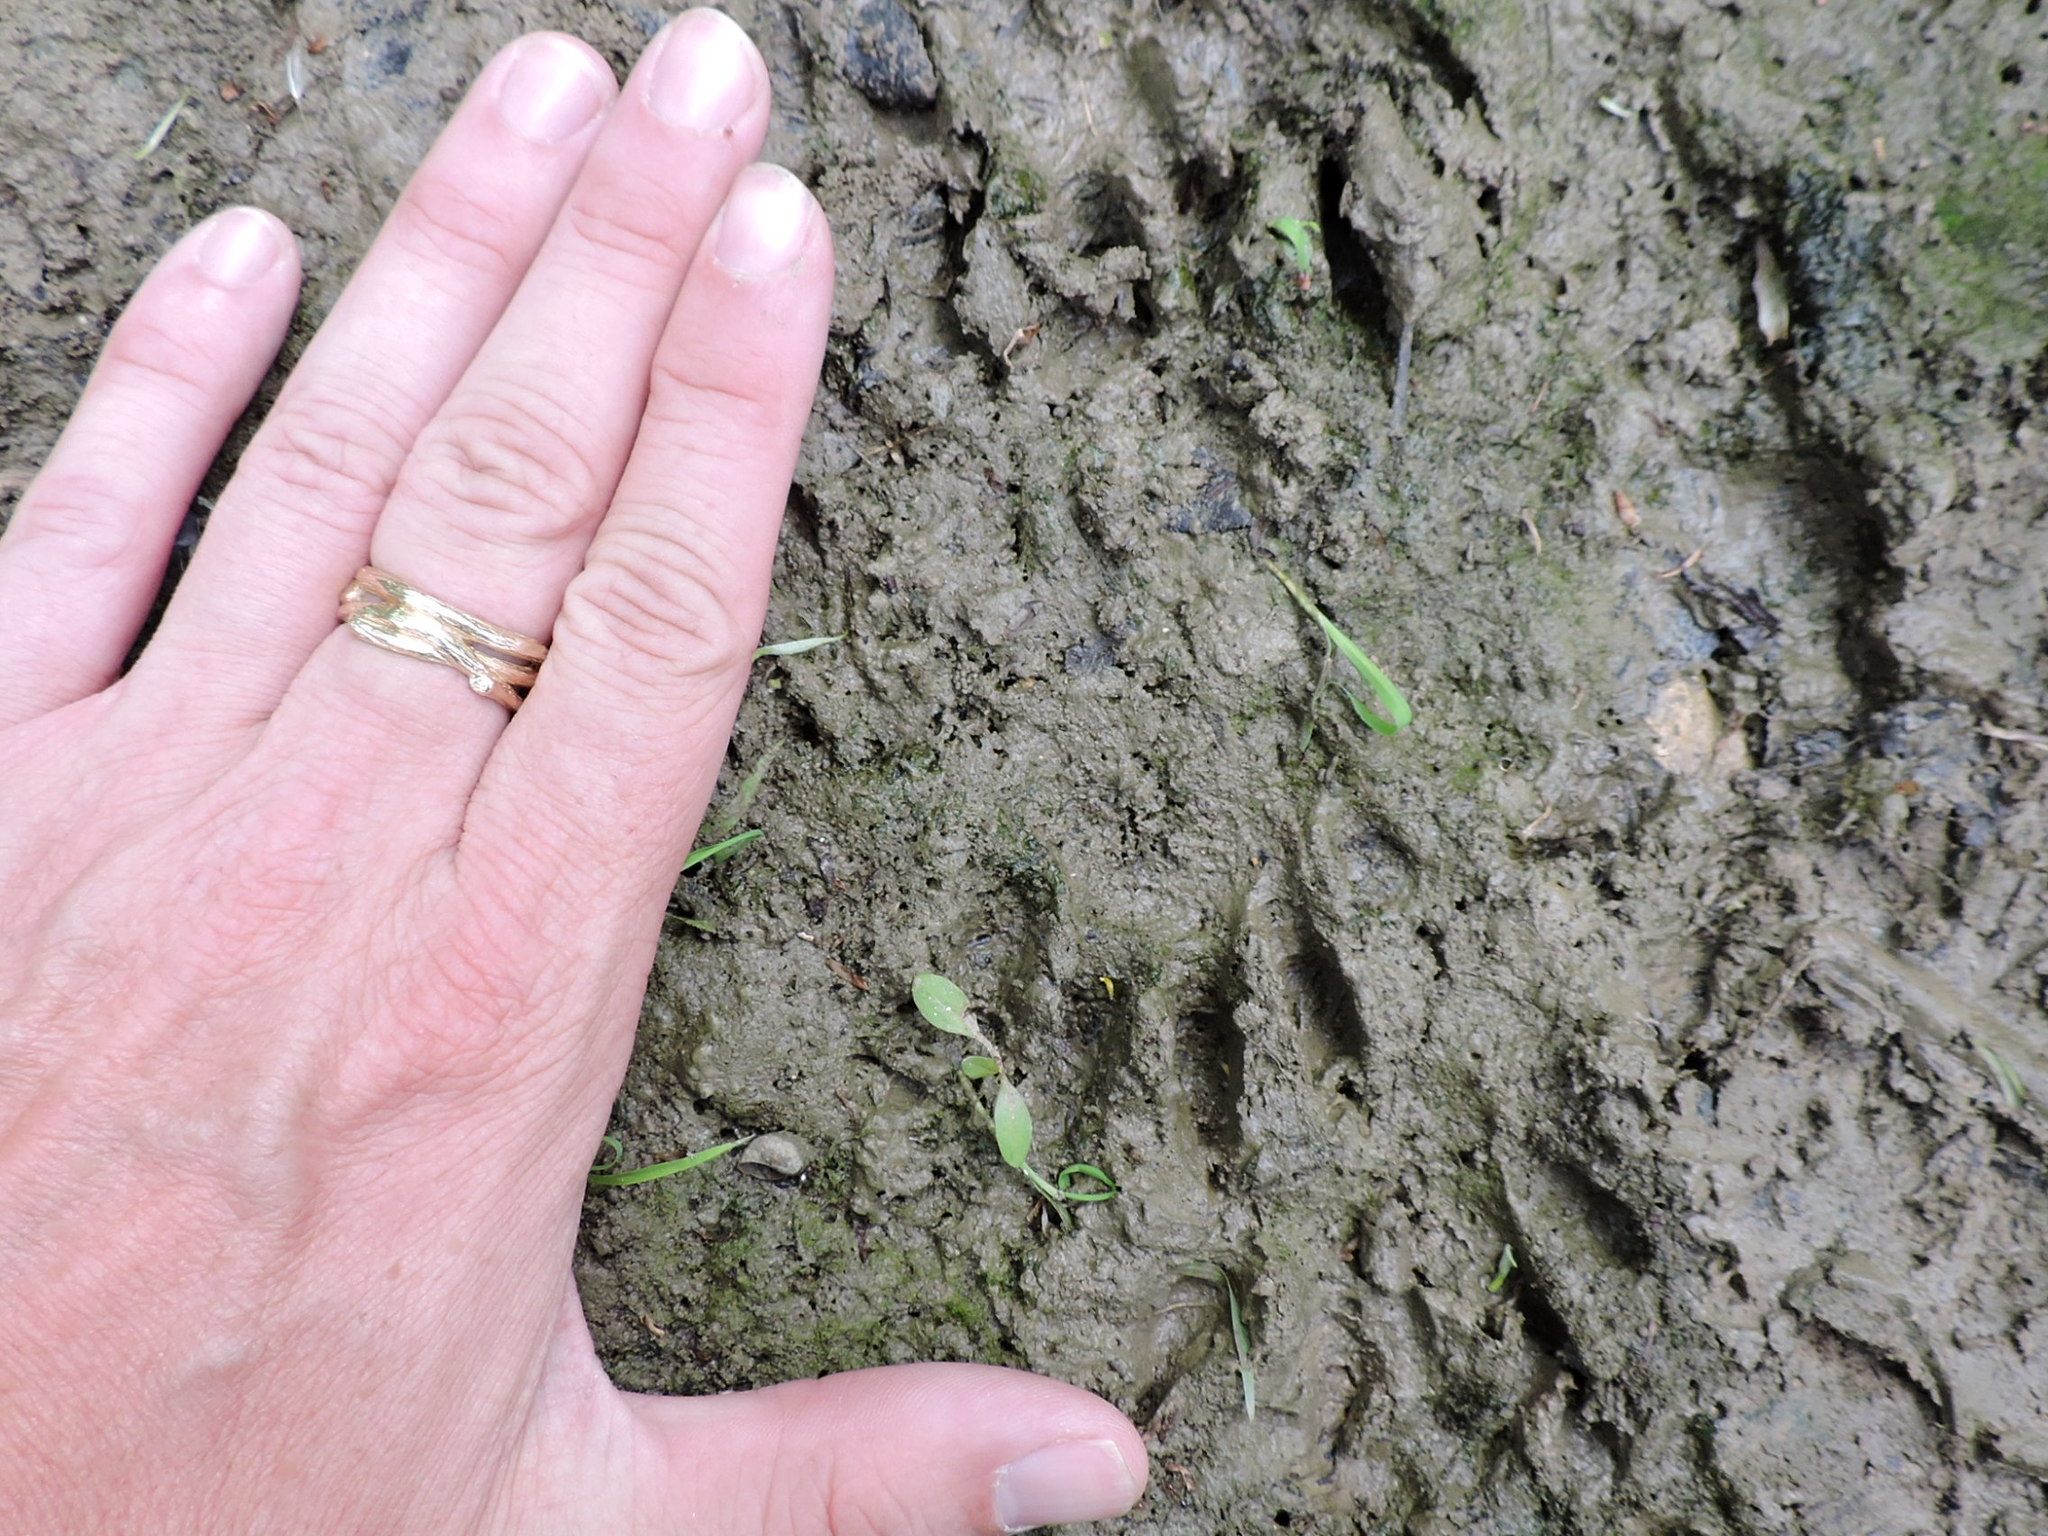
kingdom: Animalia
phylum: Chordata
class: Mammalia
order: Carnivora
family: Procyonidae
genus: Procyon
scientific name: Procyon lotor
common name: Raccoon
